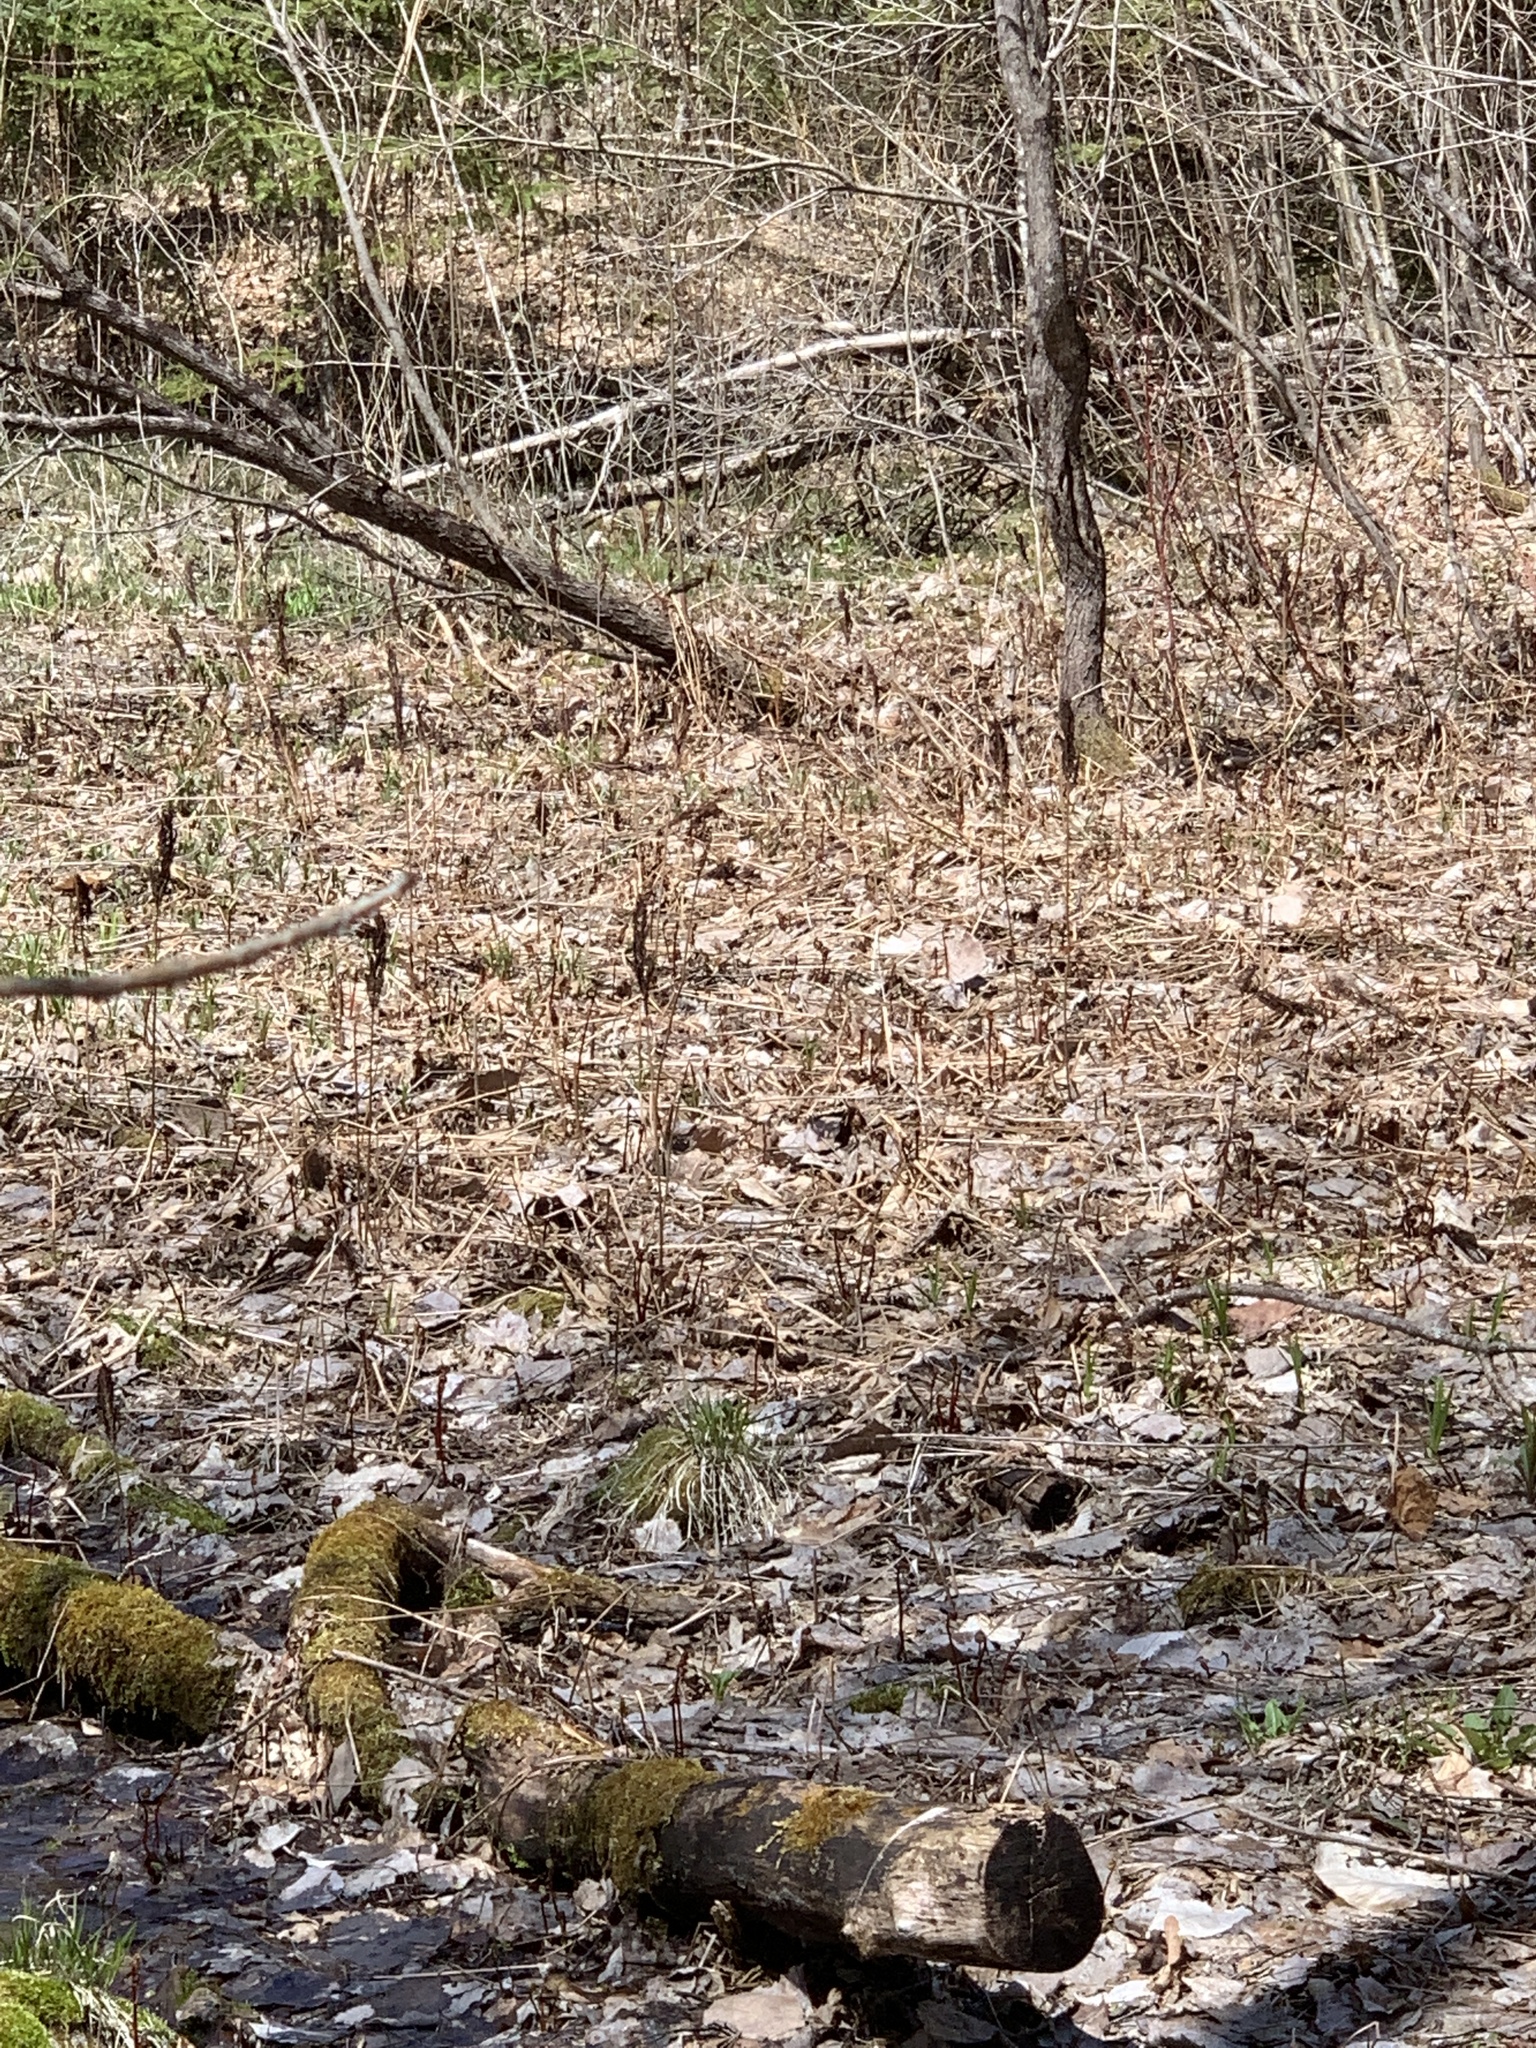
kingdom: Plantae
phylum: Tracheophyta
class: Polypodiopsida
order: Polypodiales
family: Onocleaceae
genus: Onoclea
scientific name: Onoclea sensibilis
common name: Sensitive fern
